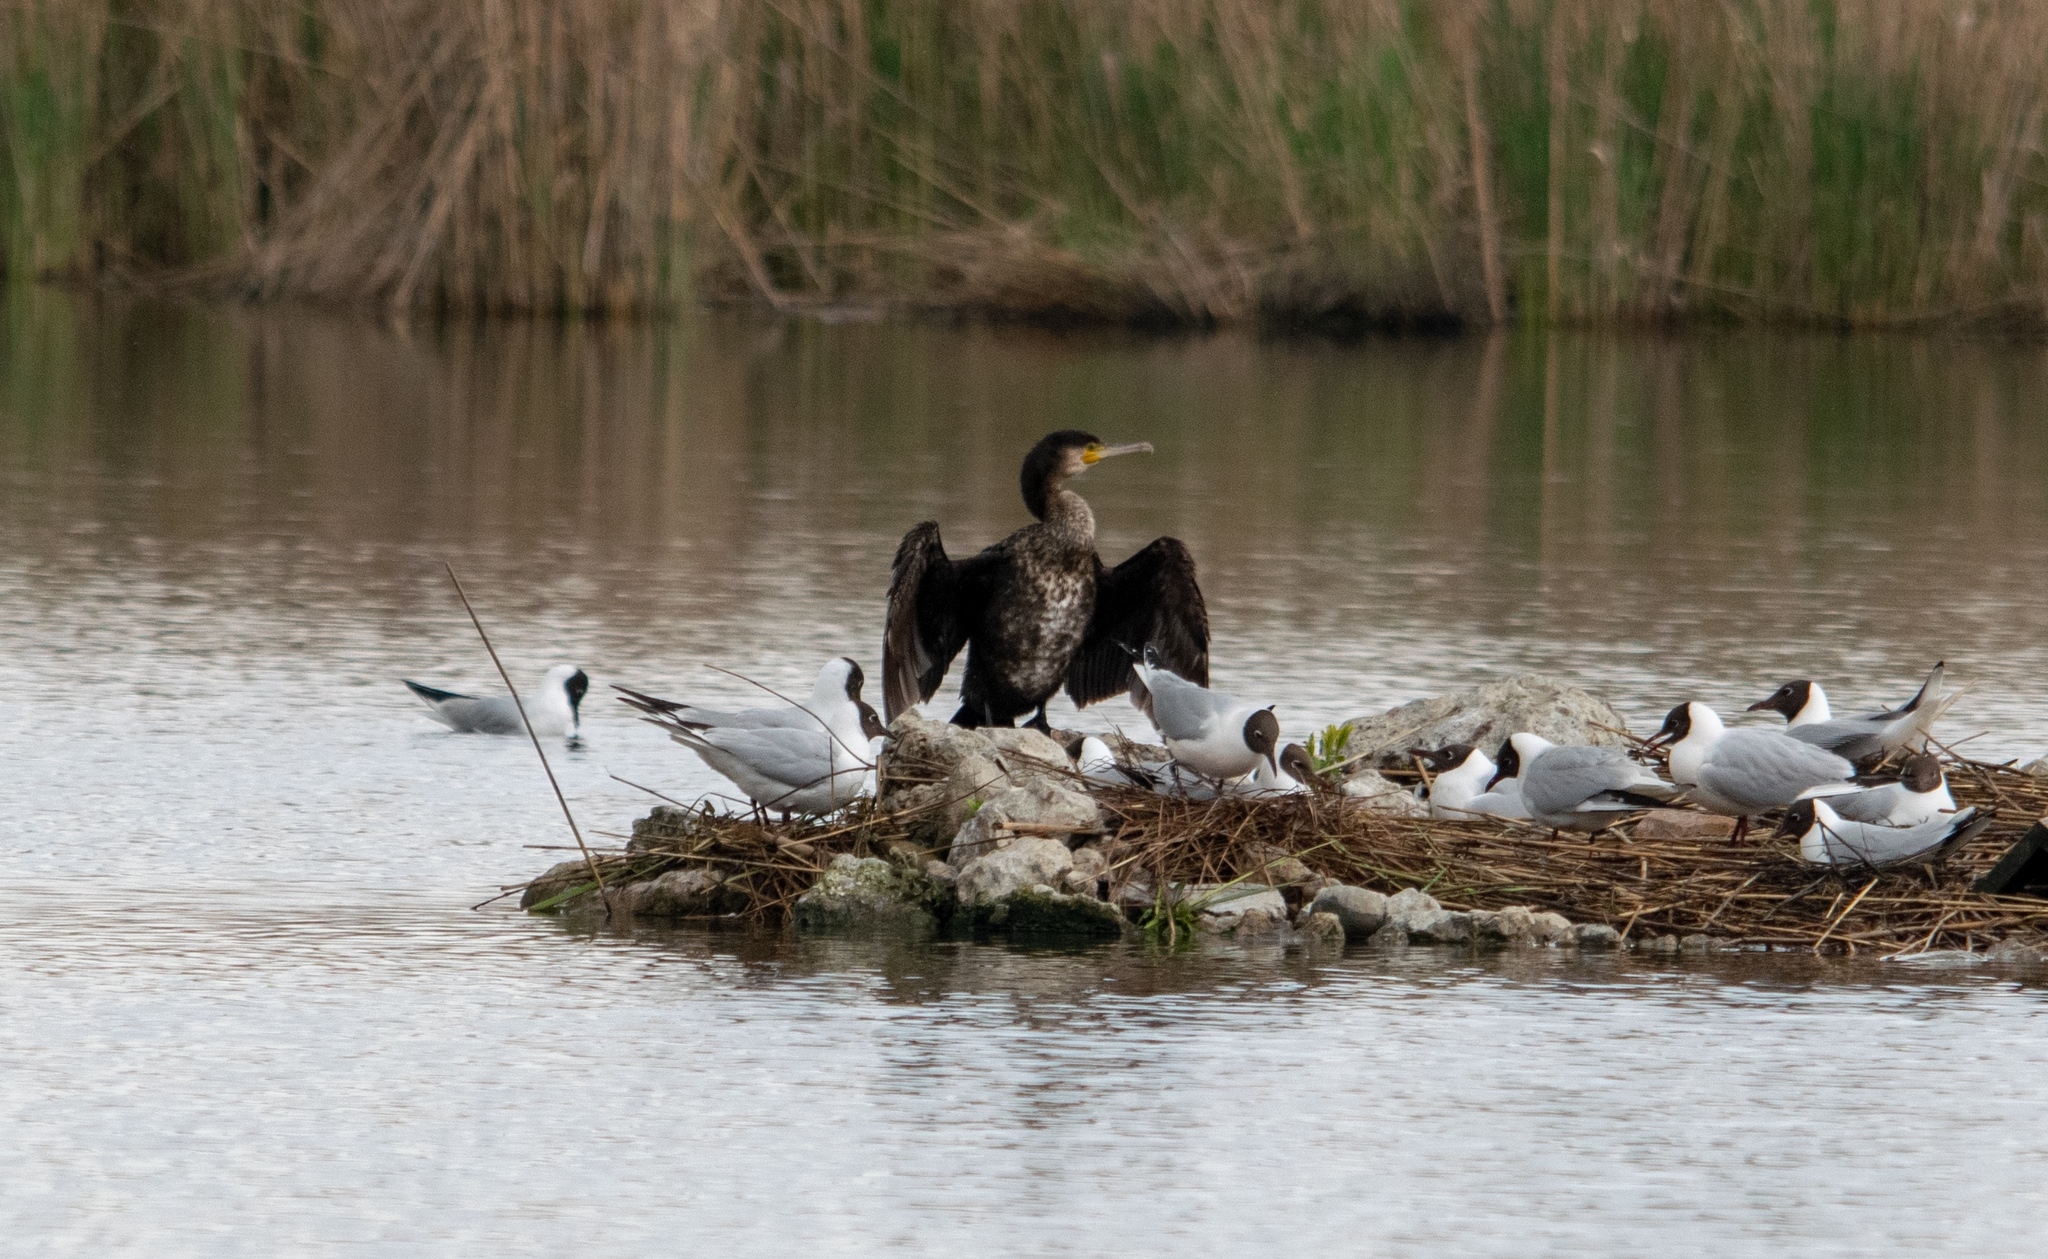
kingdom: Animalia
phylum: Chordata
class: Aves
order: Suliformes
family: Phalacrocoracidae
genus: Phalacrocorax
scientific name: Phalacrocorax carbo
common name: Great cormorant
